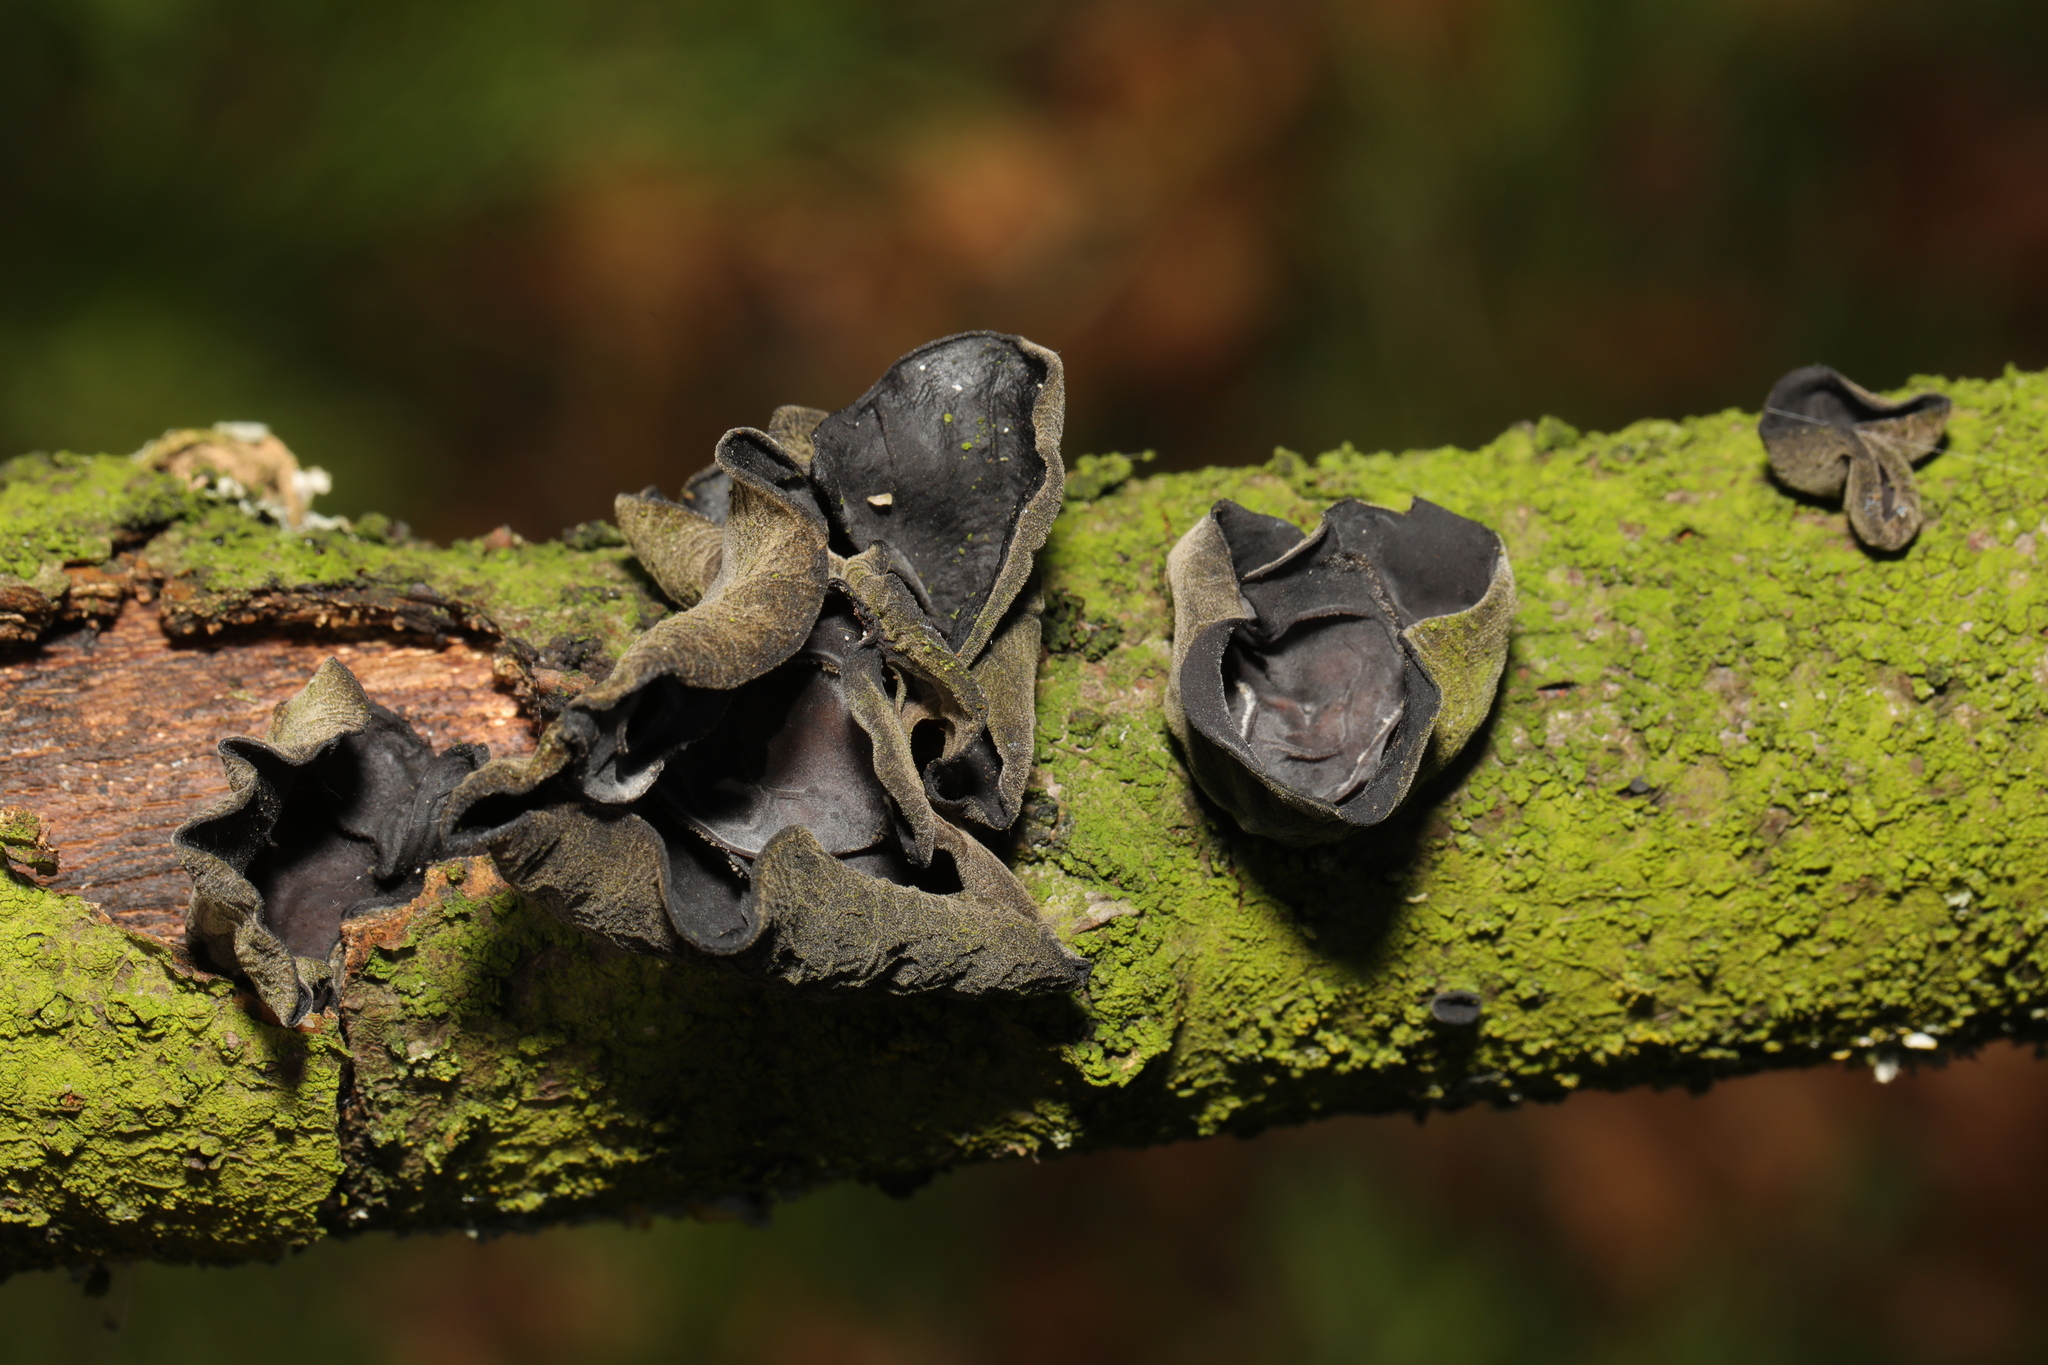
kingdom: Fungi
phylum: Basidiomycota
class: Agaricomycetes
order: Auriculariales
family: Auriculariaceae
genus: Auricularia
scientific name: Auricularia auricula-judae
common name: Jelly ear
